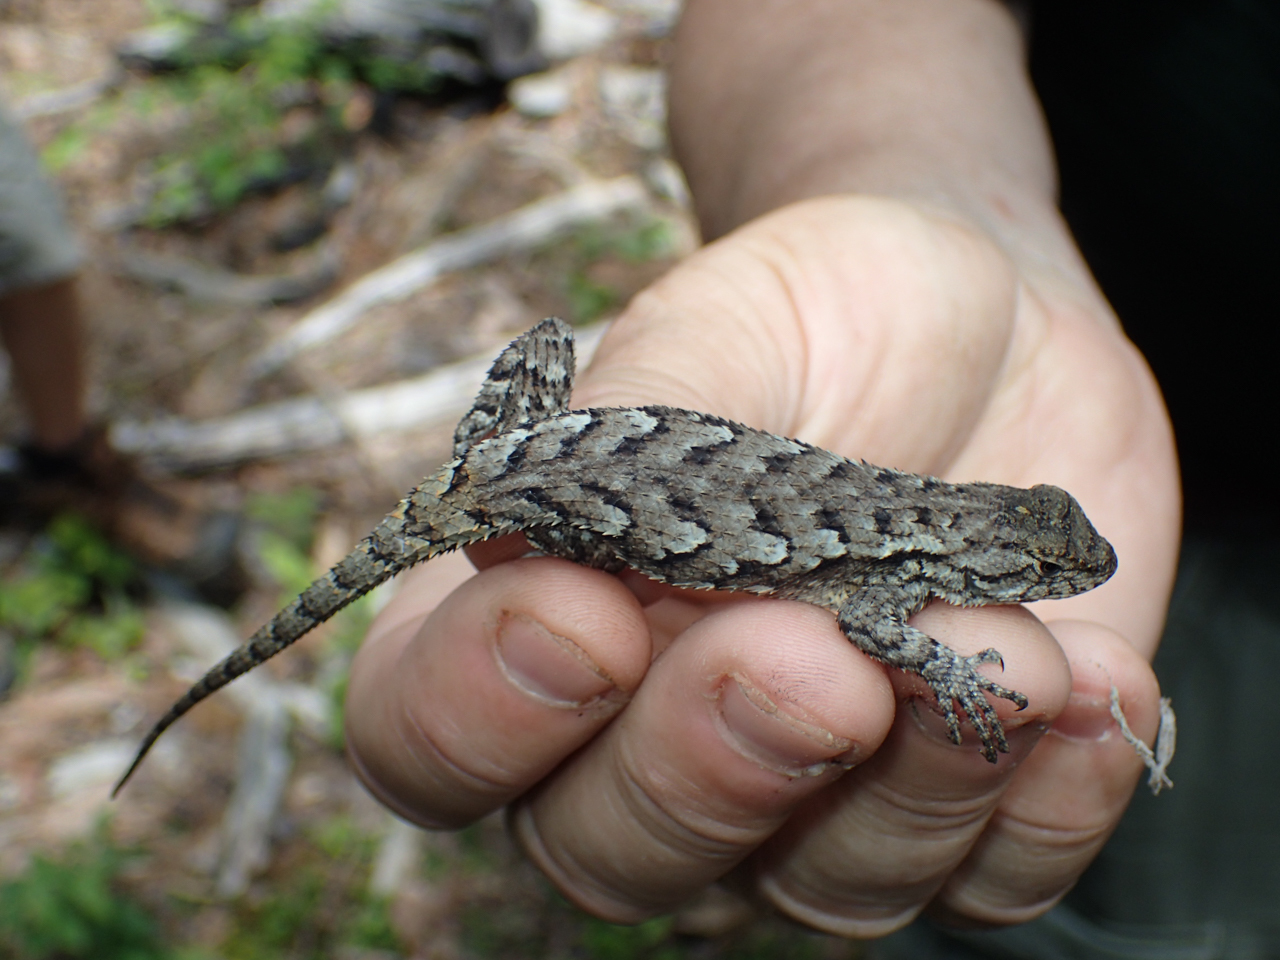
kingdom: Animalia
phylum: Chordata
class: Squamata
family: Phrynosomatidae
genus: Sceloporus
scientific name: Sceloporus undulatus
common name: Eastern fence lizard
